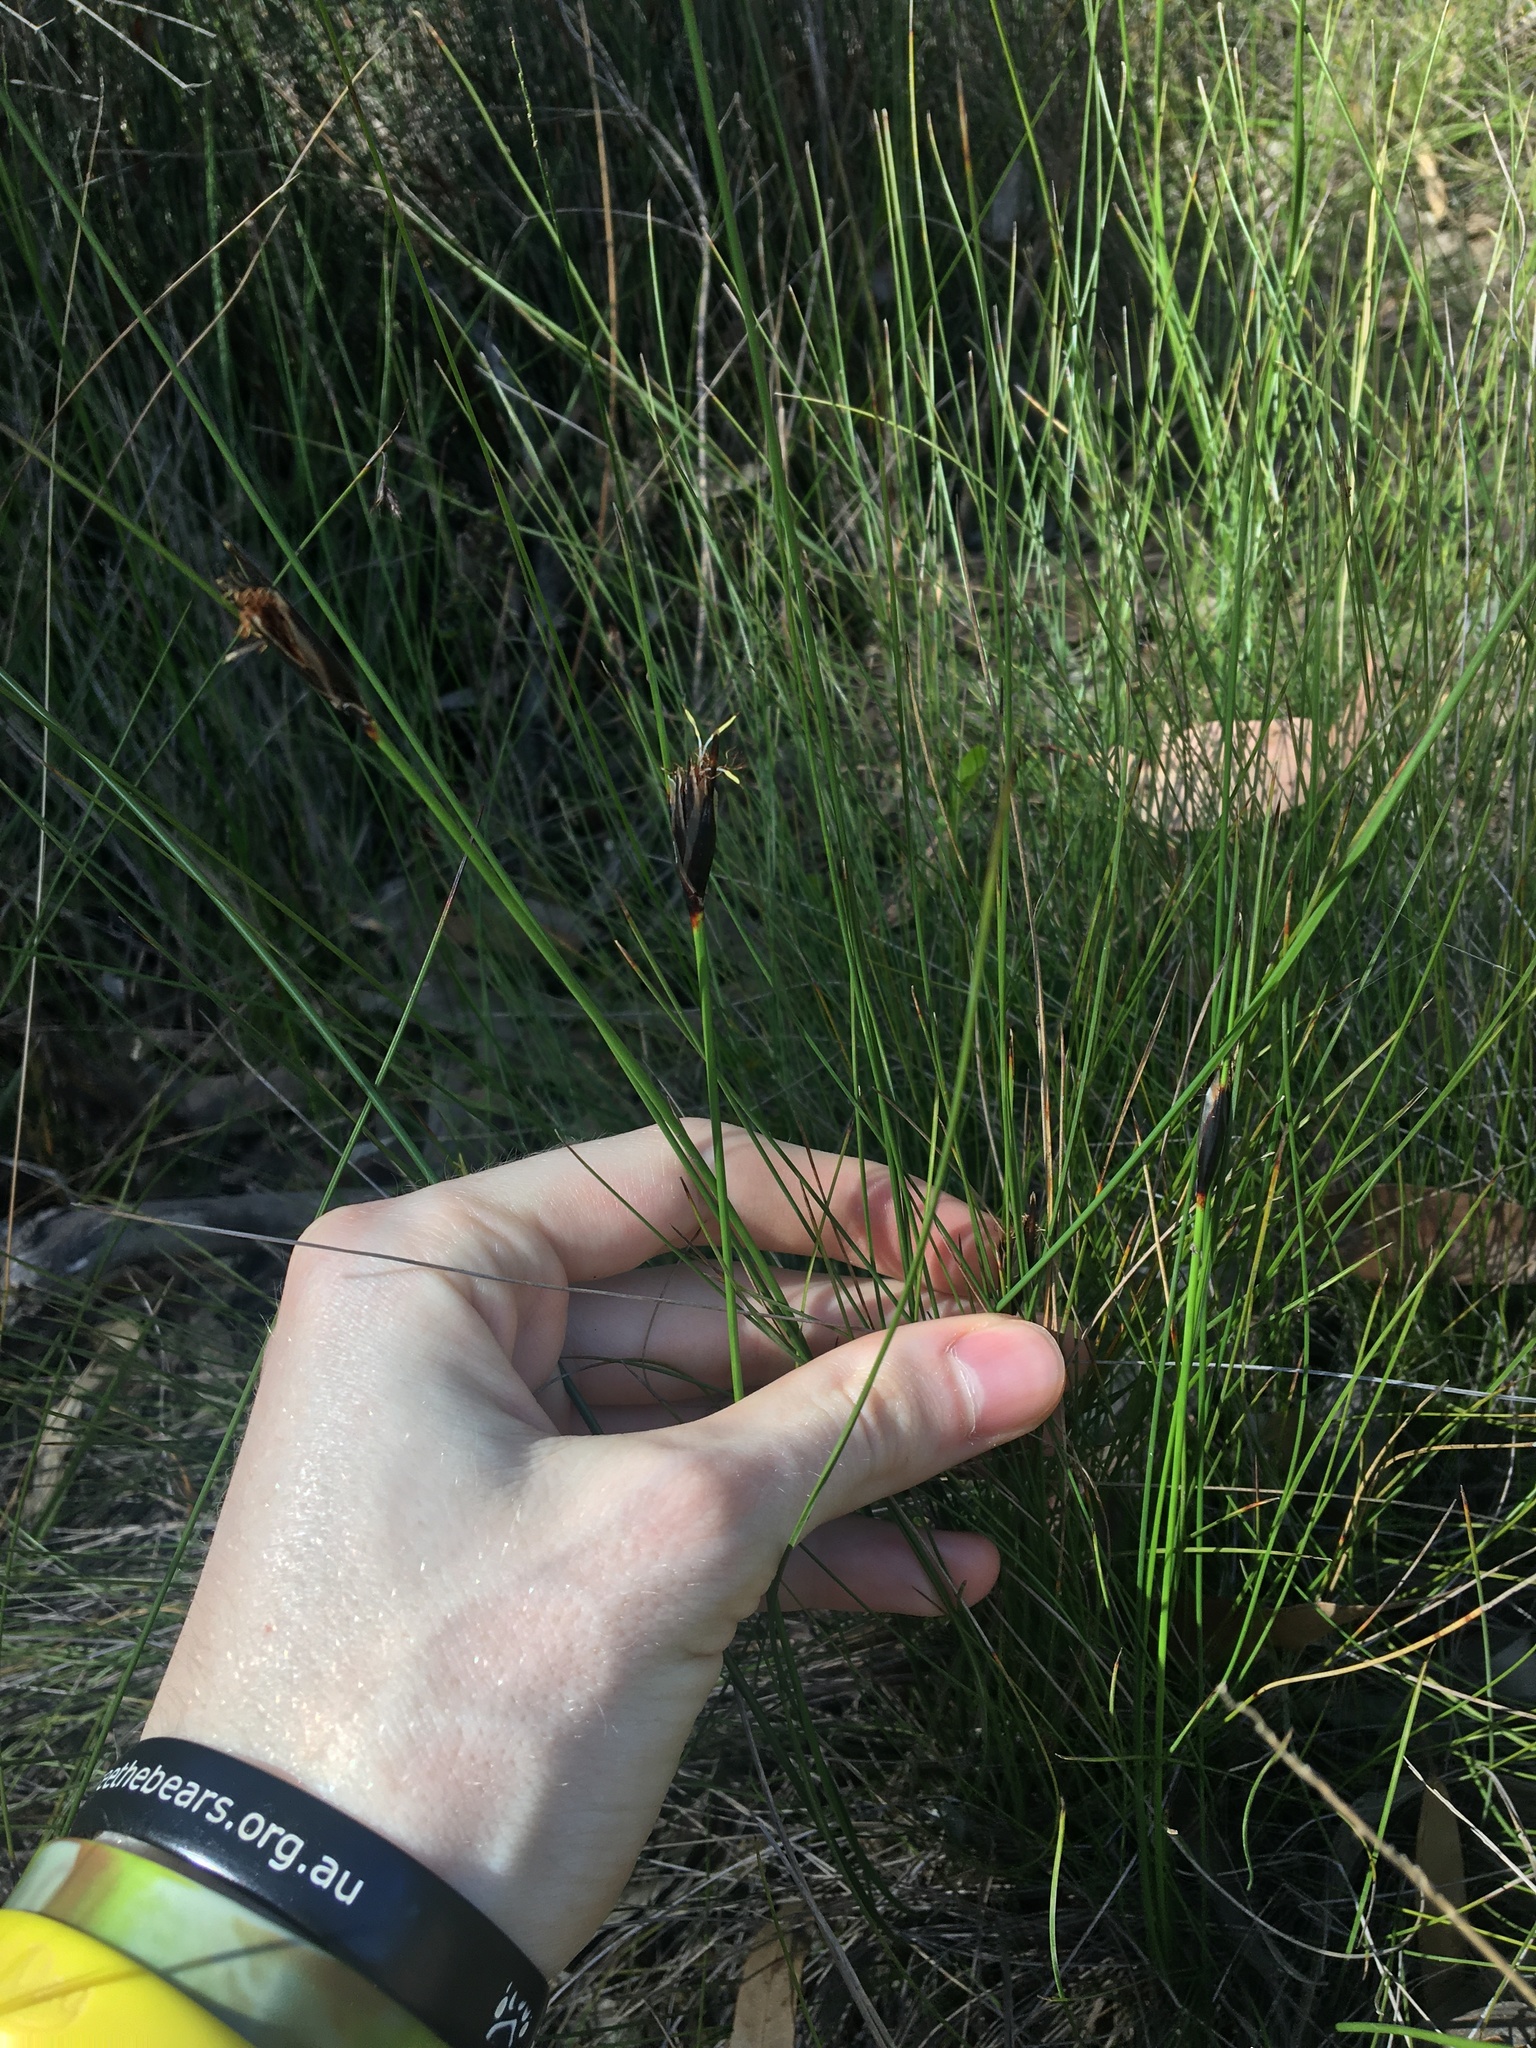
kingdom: Plantae
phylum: Tracheophyta
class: Liliopsida
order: Poales
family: Cyperaceae
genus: Ptilothrix
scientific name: Ptilothrix deusta
